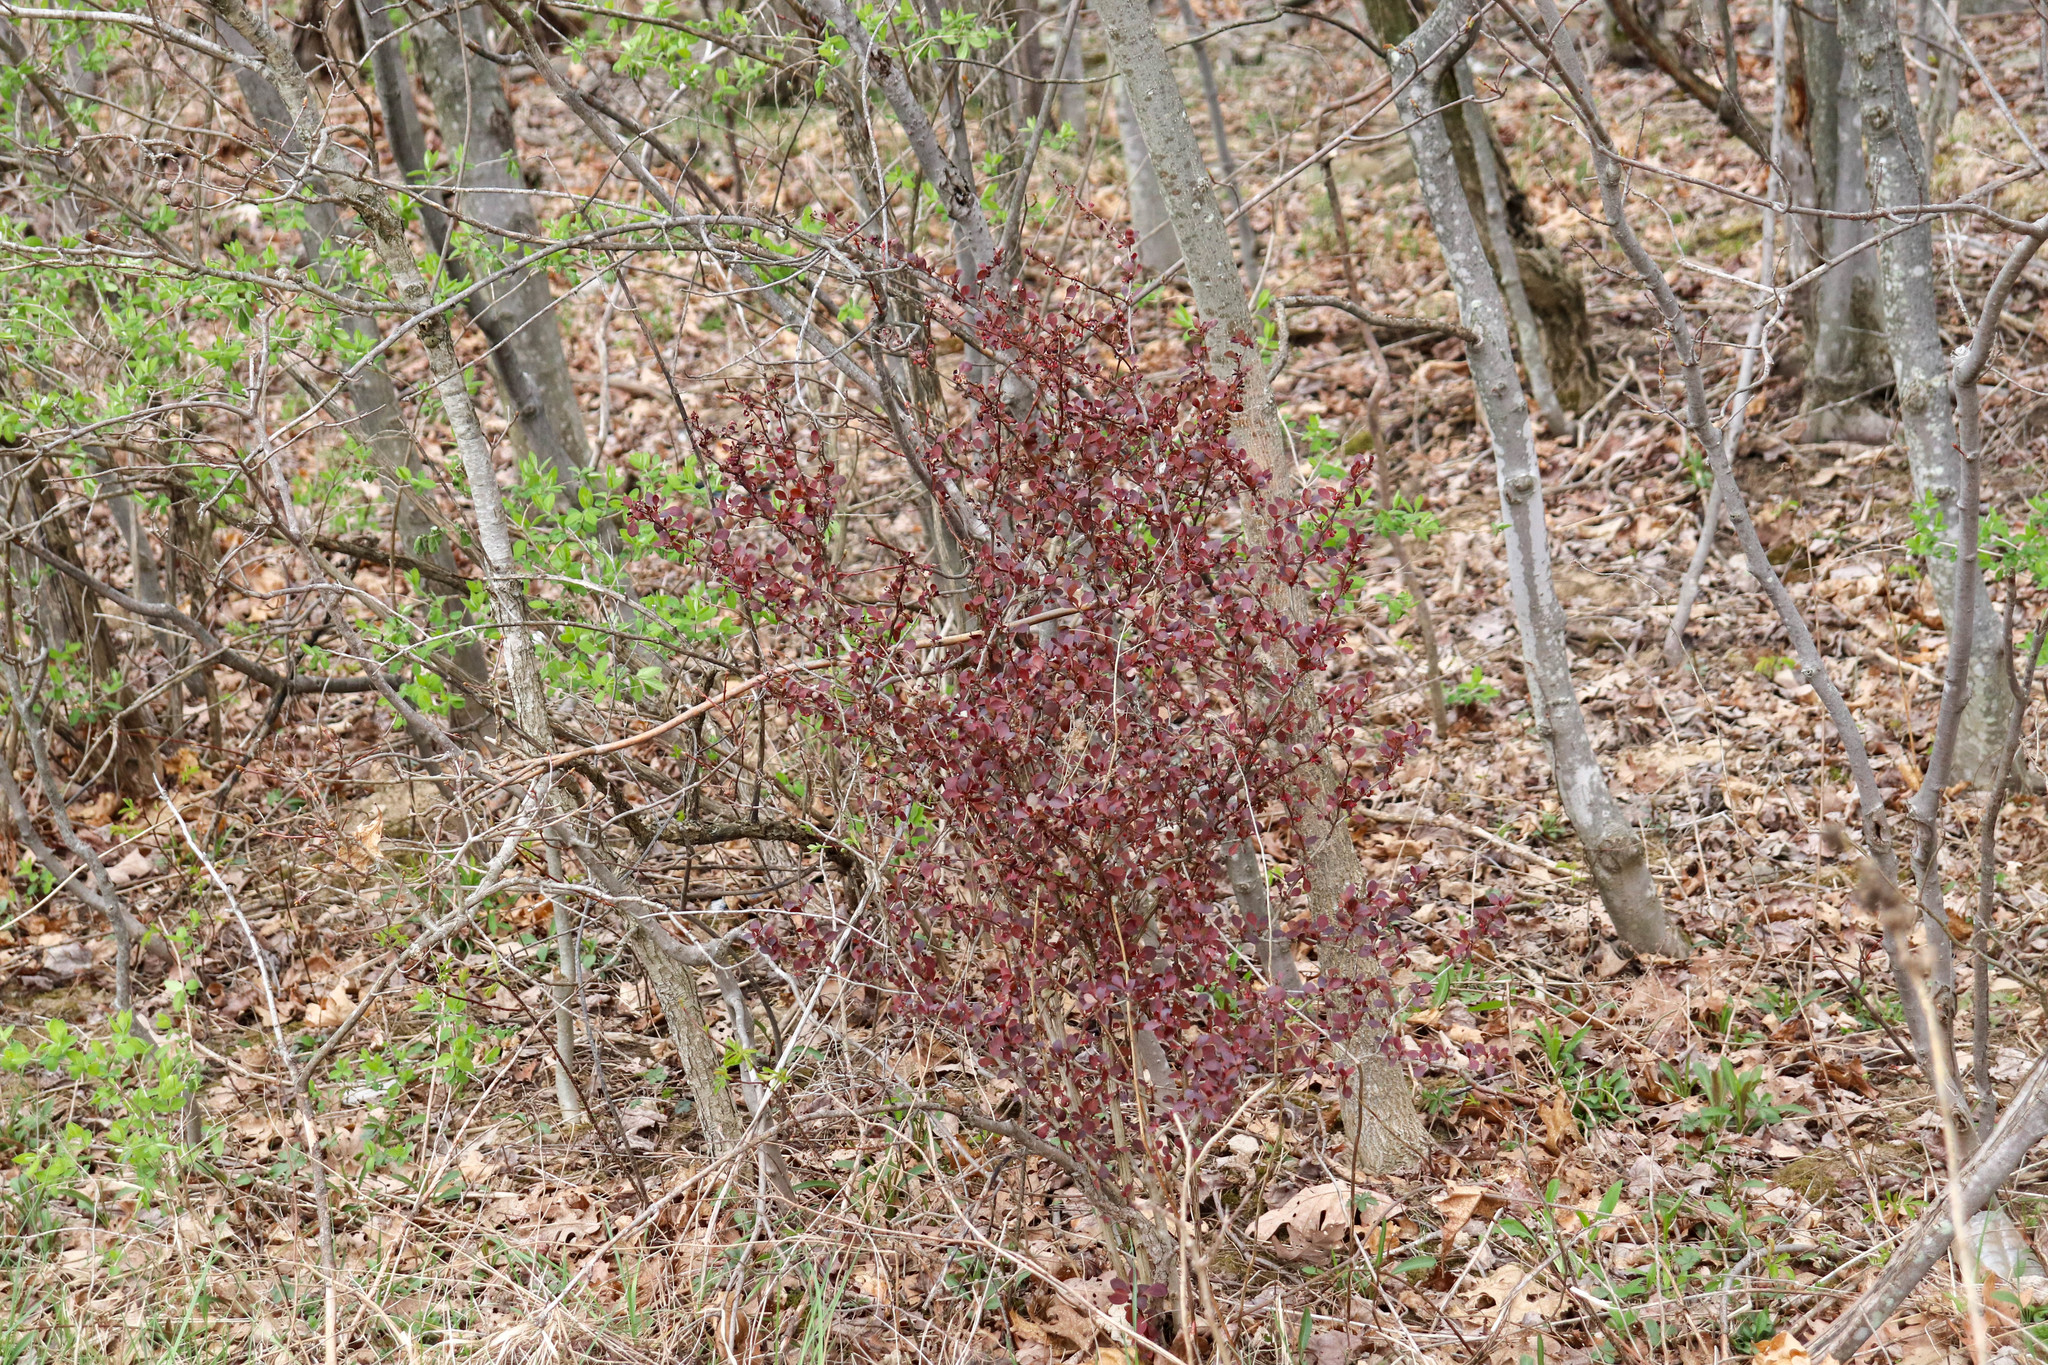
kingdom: Plantae
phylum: Tracheophyta
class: Magnoliopsida
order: Ranunculales
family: Berberidaceae
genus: Berberis
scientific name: Berberis thunbergii
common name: Japanese barberry
